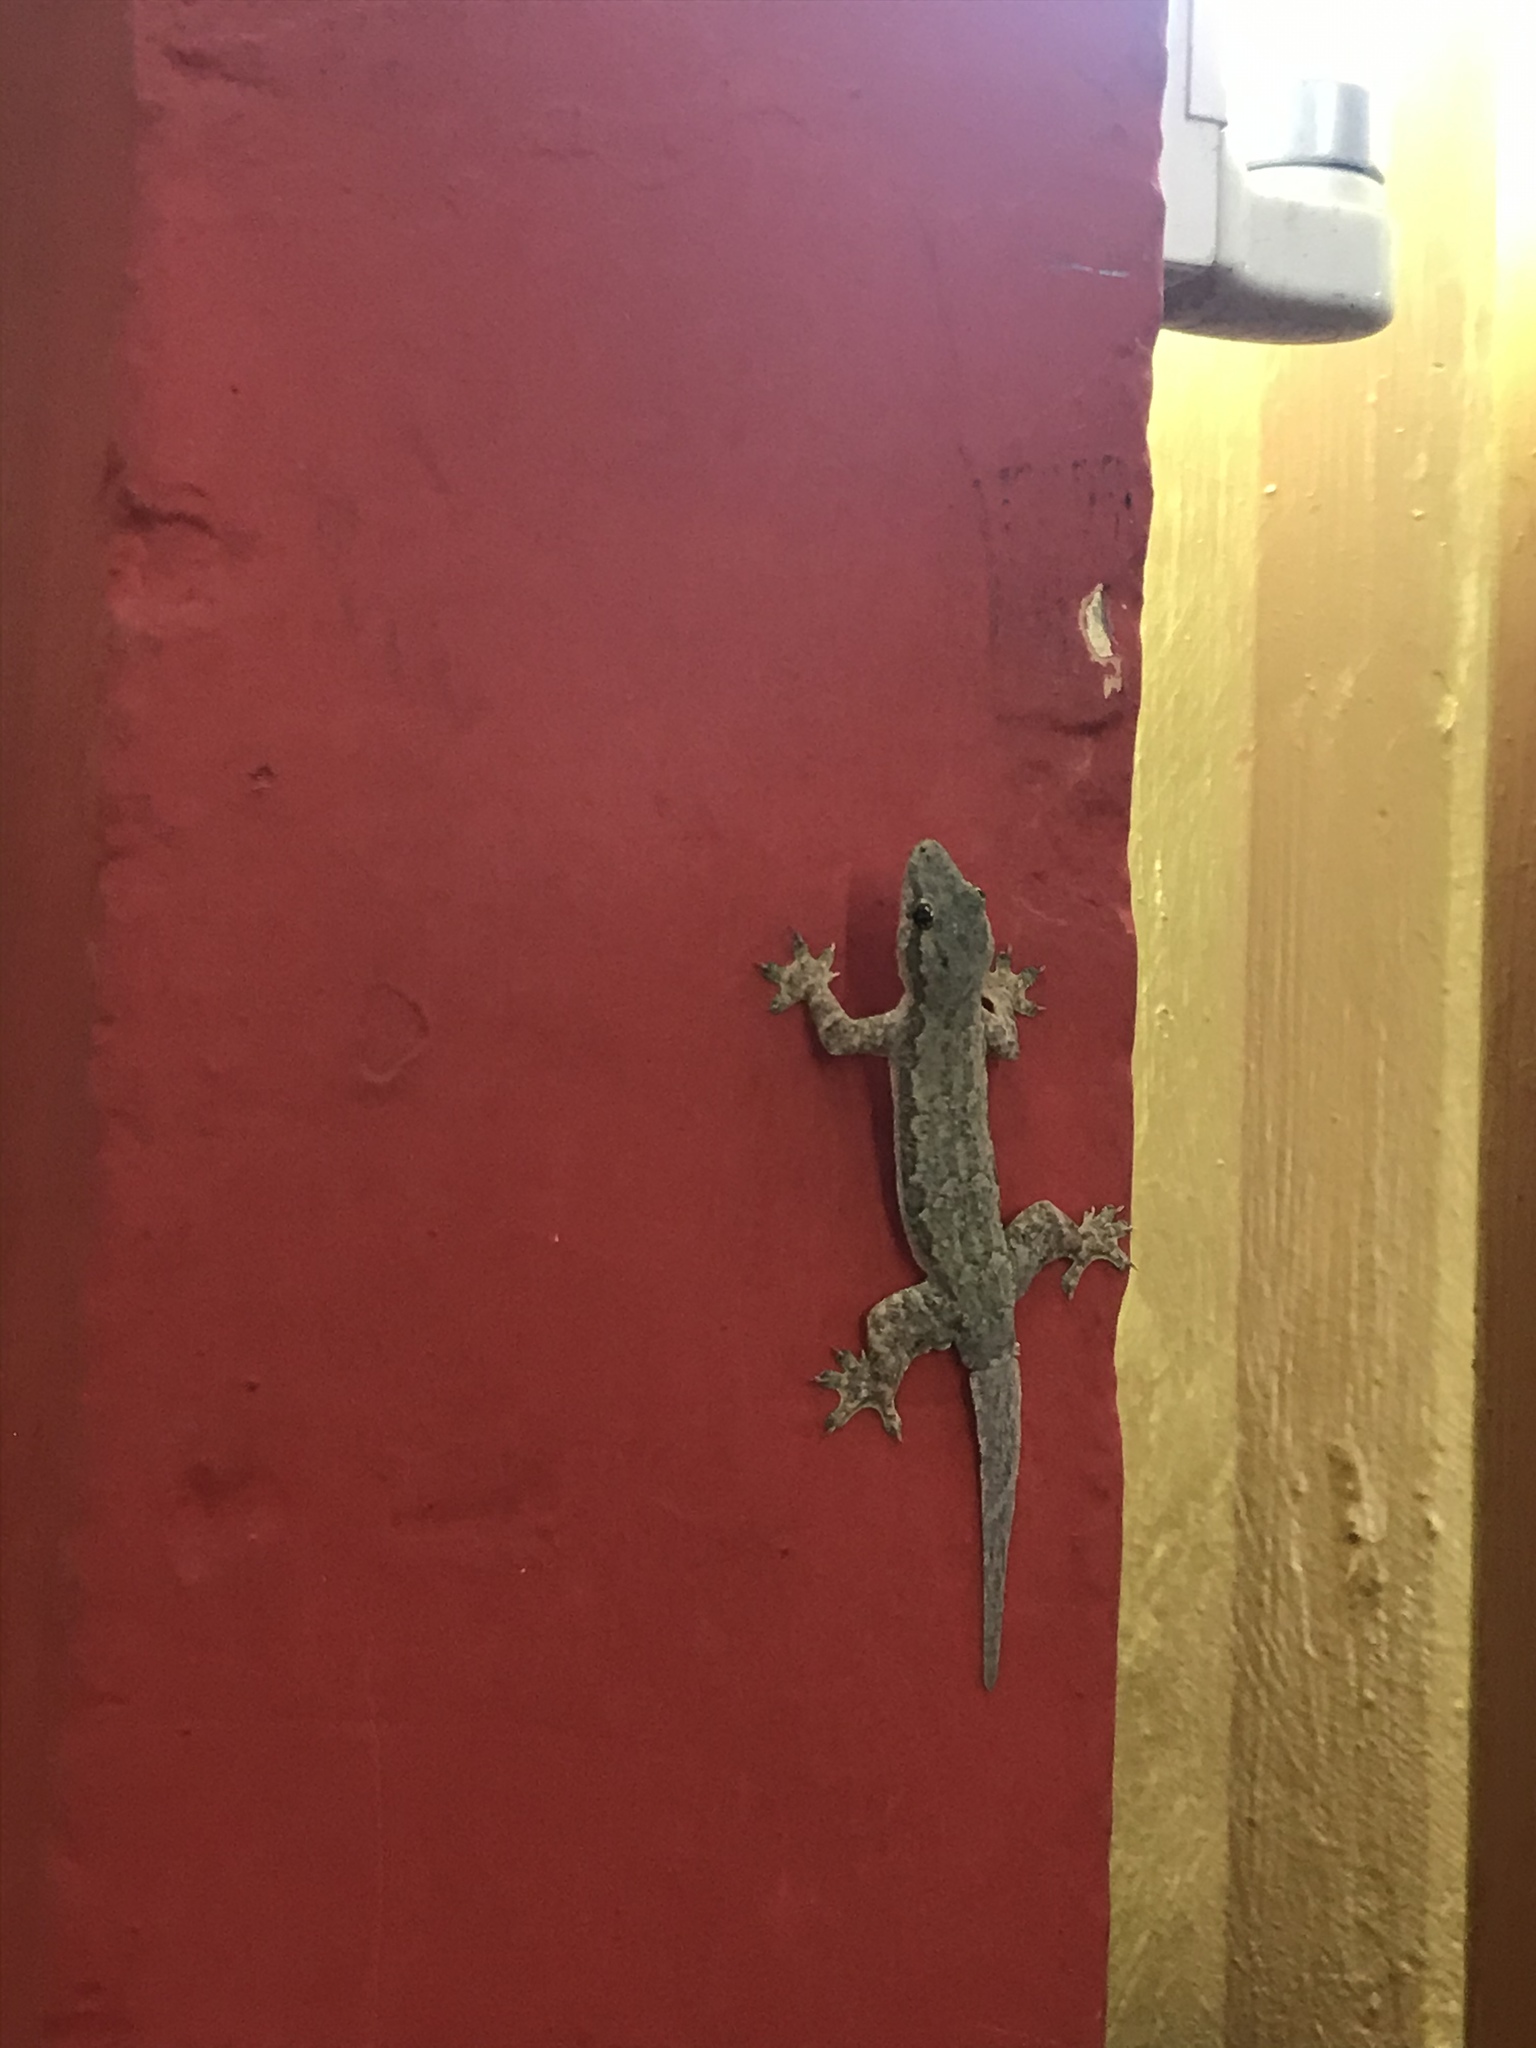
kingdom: Animalia
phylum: Chordata
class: Squamata
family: Gekkonidae
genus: Hemidactylus
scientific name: Hemidactylus platyurus
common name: Flat-tailed house gecko
